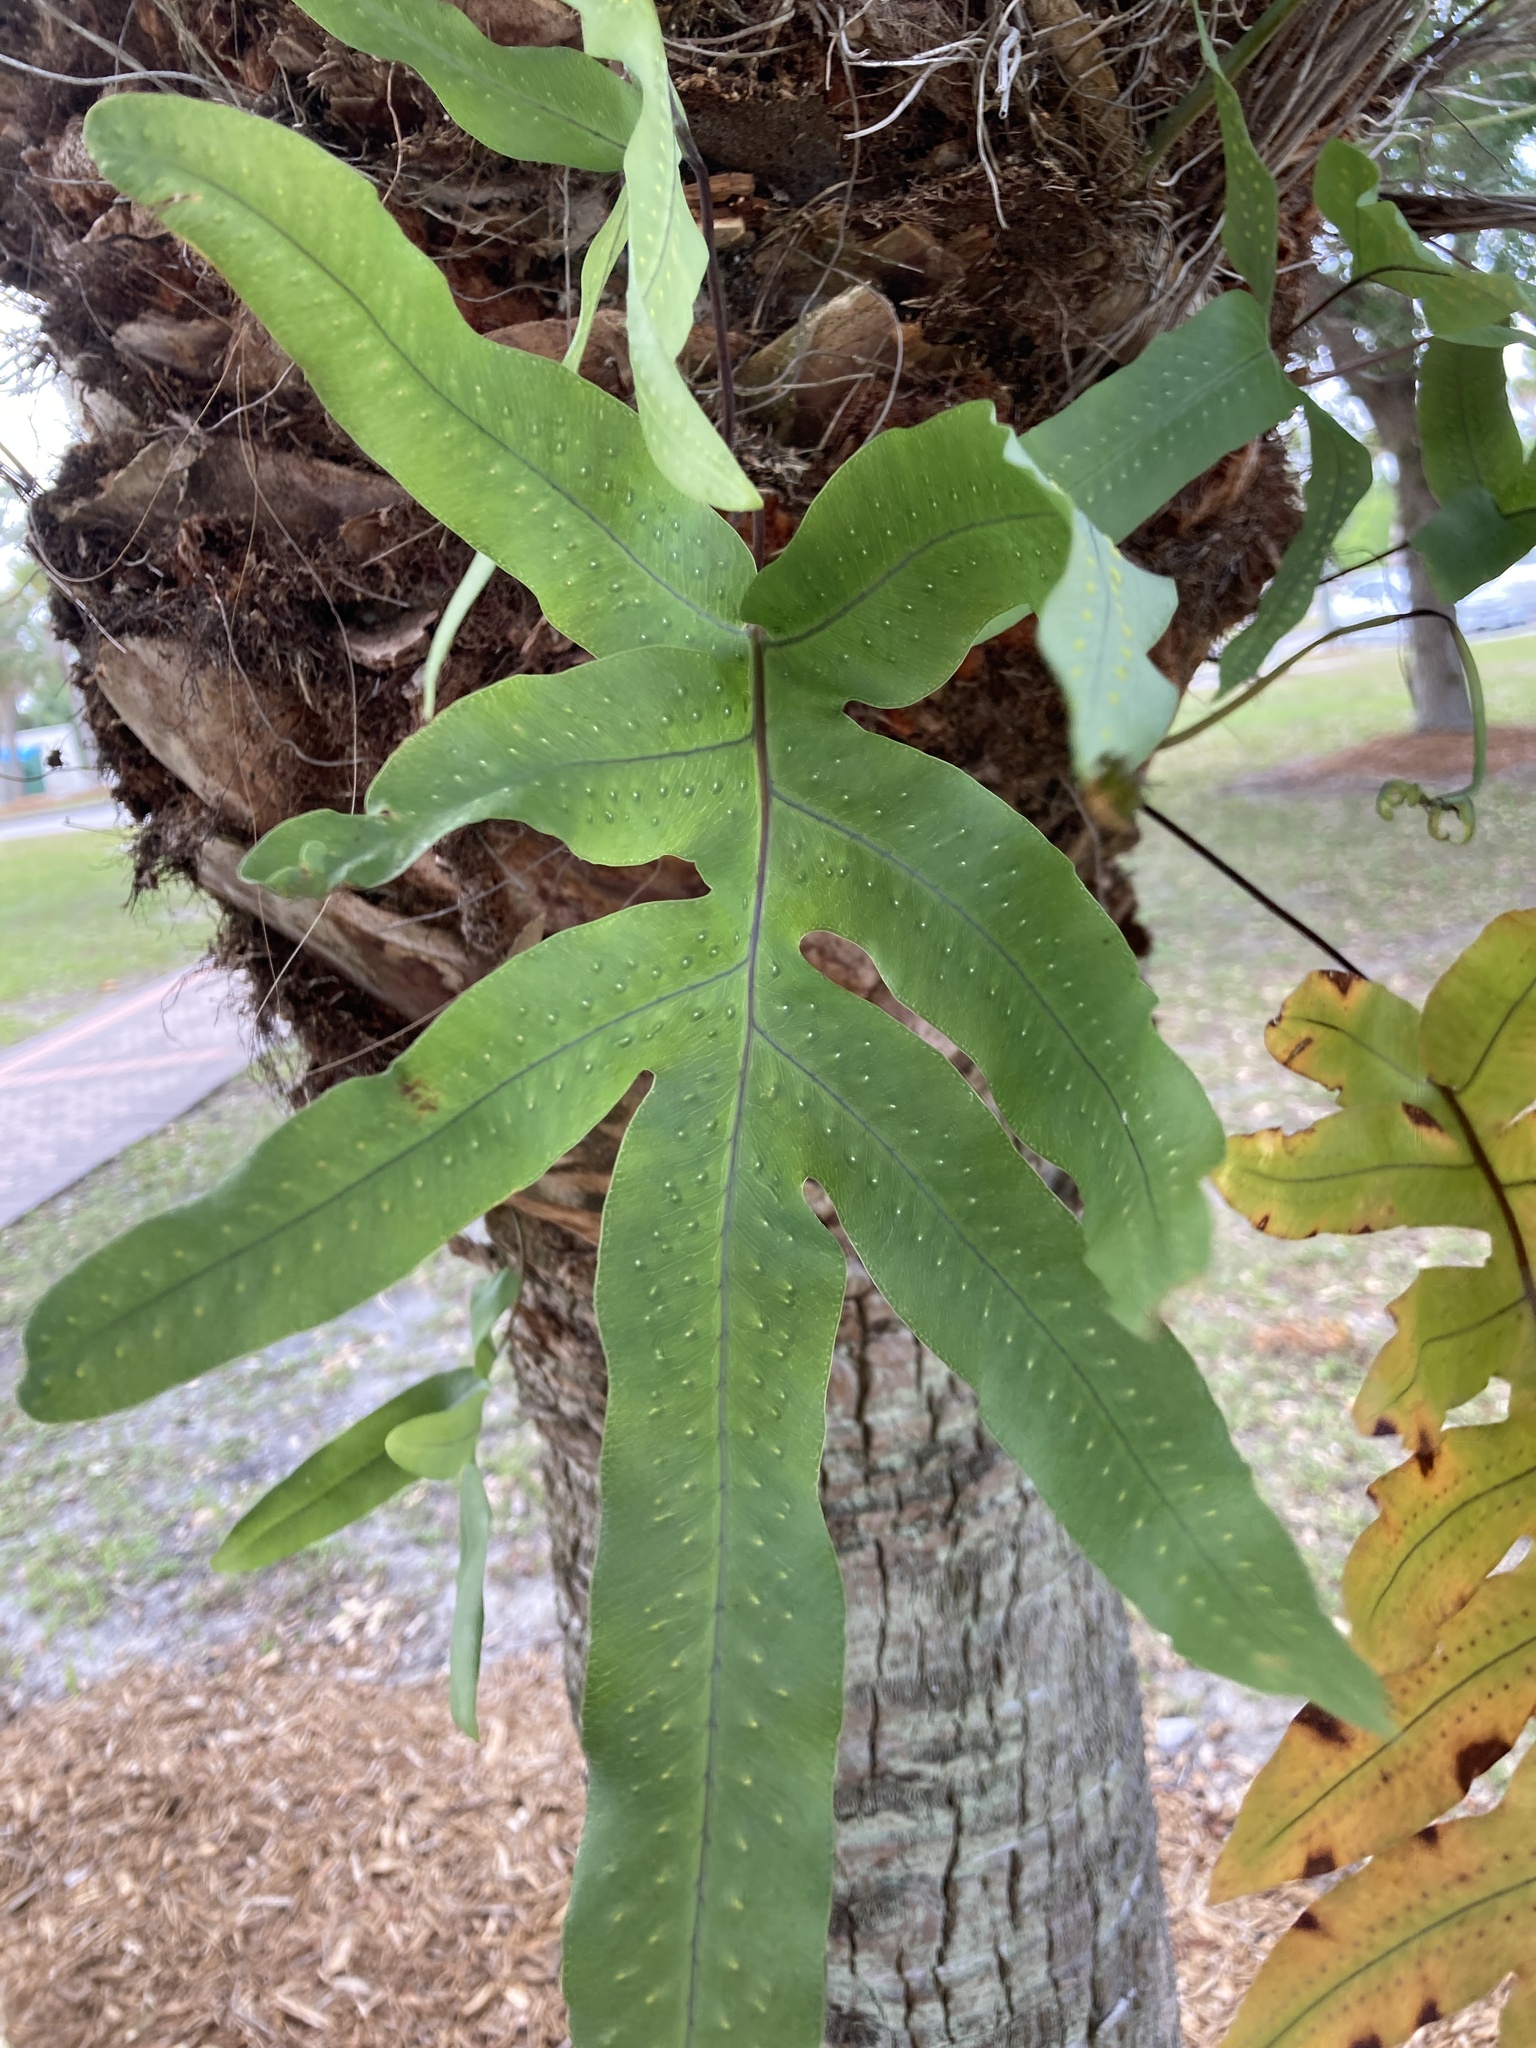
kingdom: Plantae
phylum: Tracheophyta
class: Polypodiopsida
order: Polypodiales
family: Polypodiaceae
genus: Phlebodium
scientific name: Phlebodium aureum
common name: Gold-foot fern
